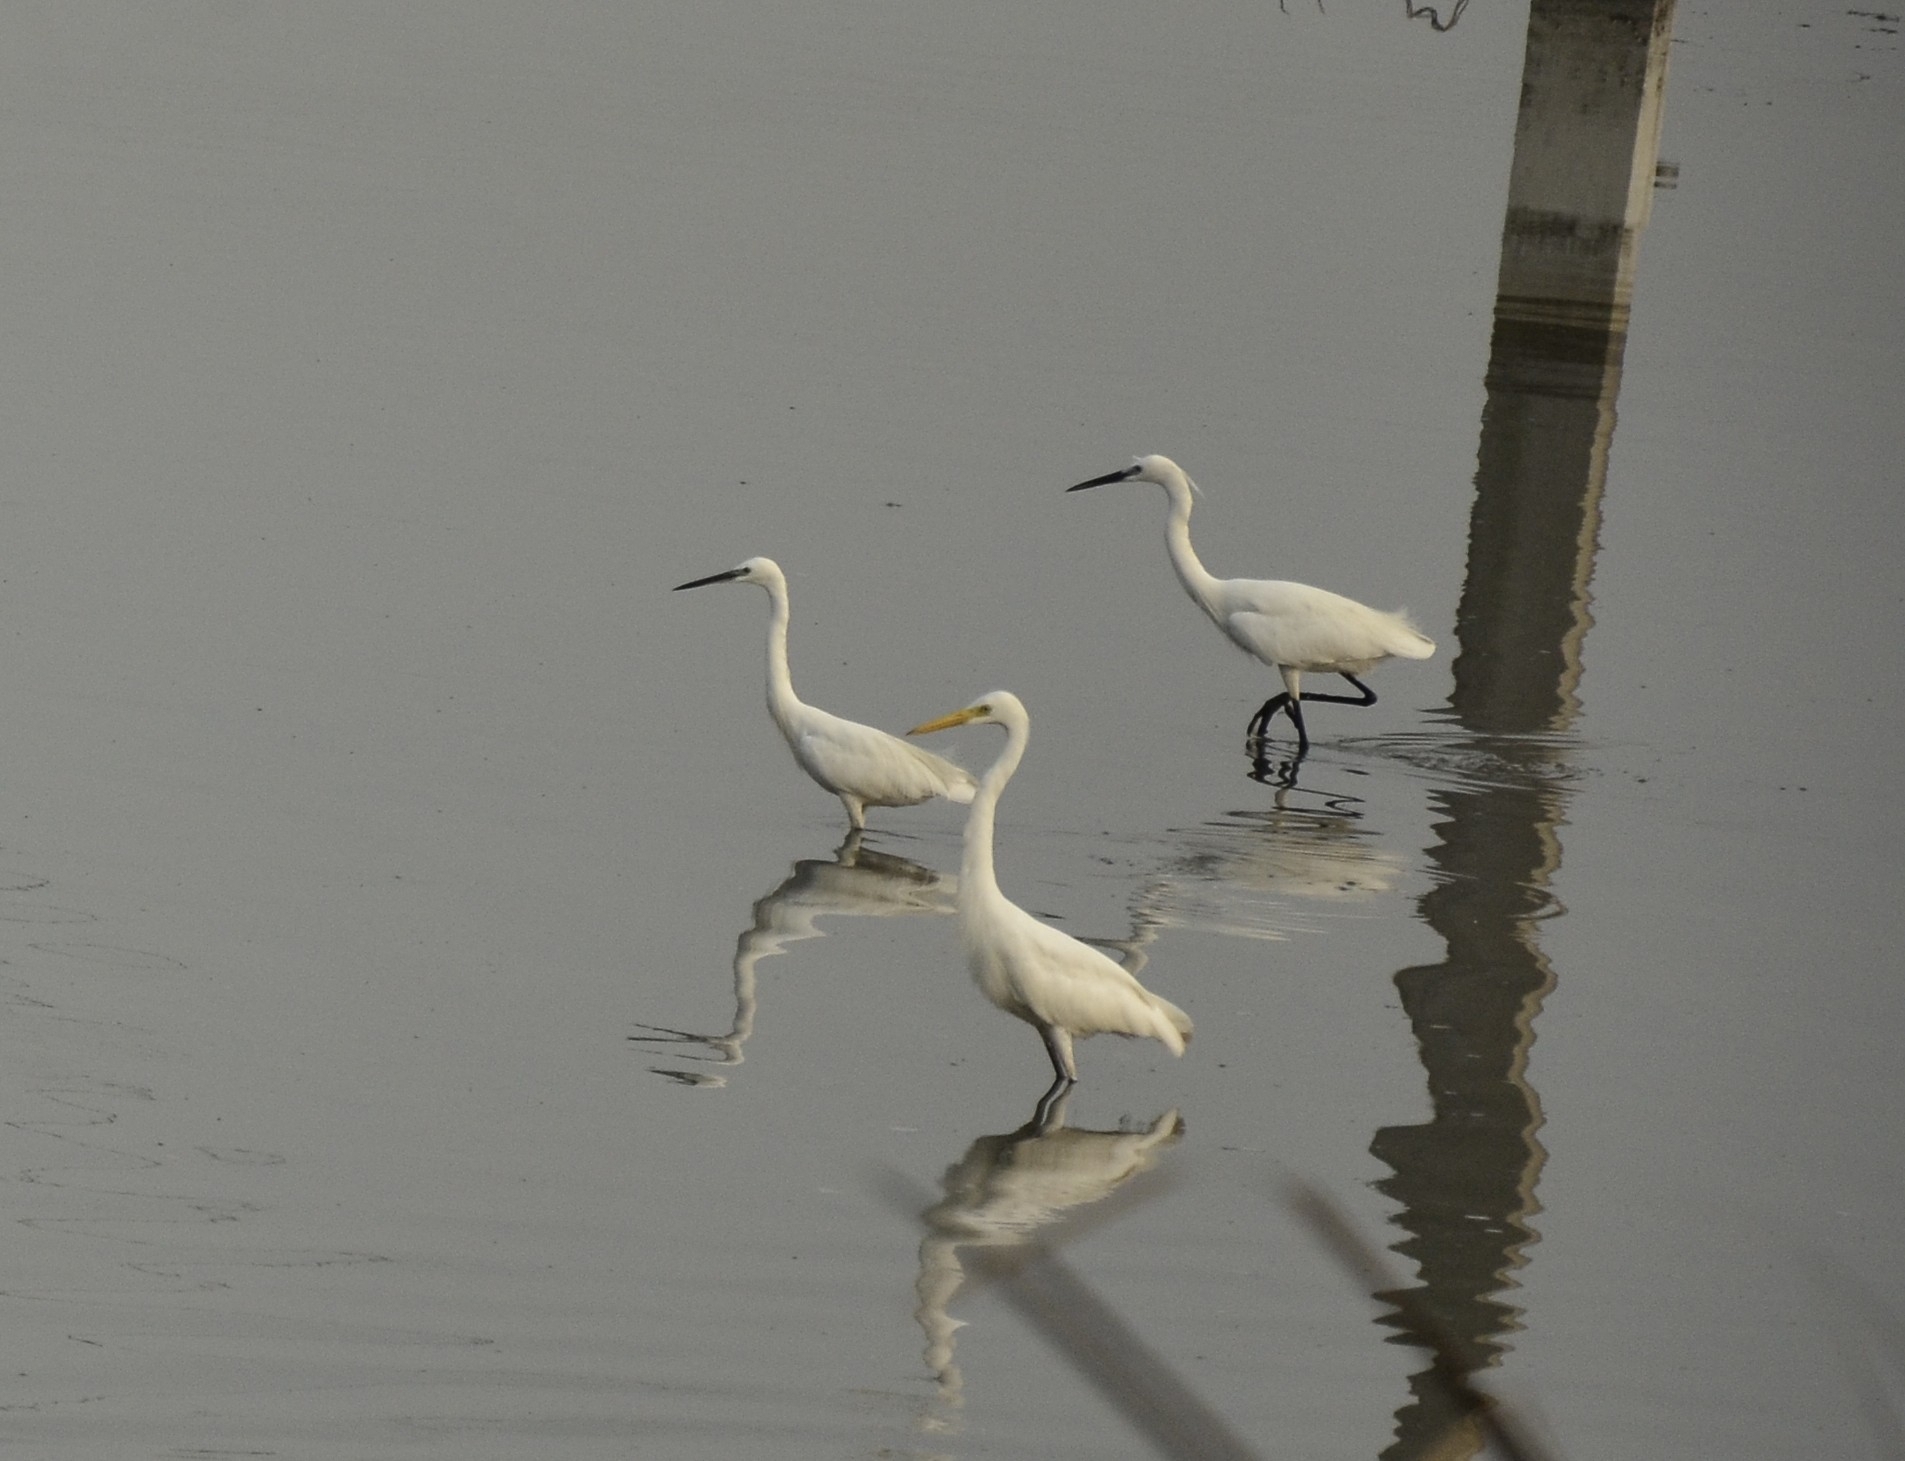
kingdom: Animalia
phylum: Chordata
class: Aves
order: Pelecaniformes
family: Ardeidae
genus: Egretta
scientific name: Egretta garzetta
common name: Little egret
